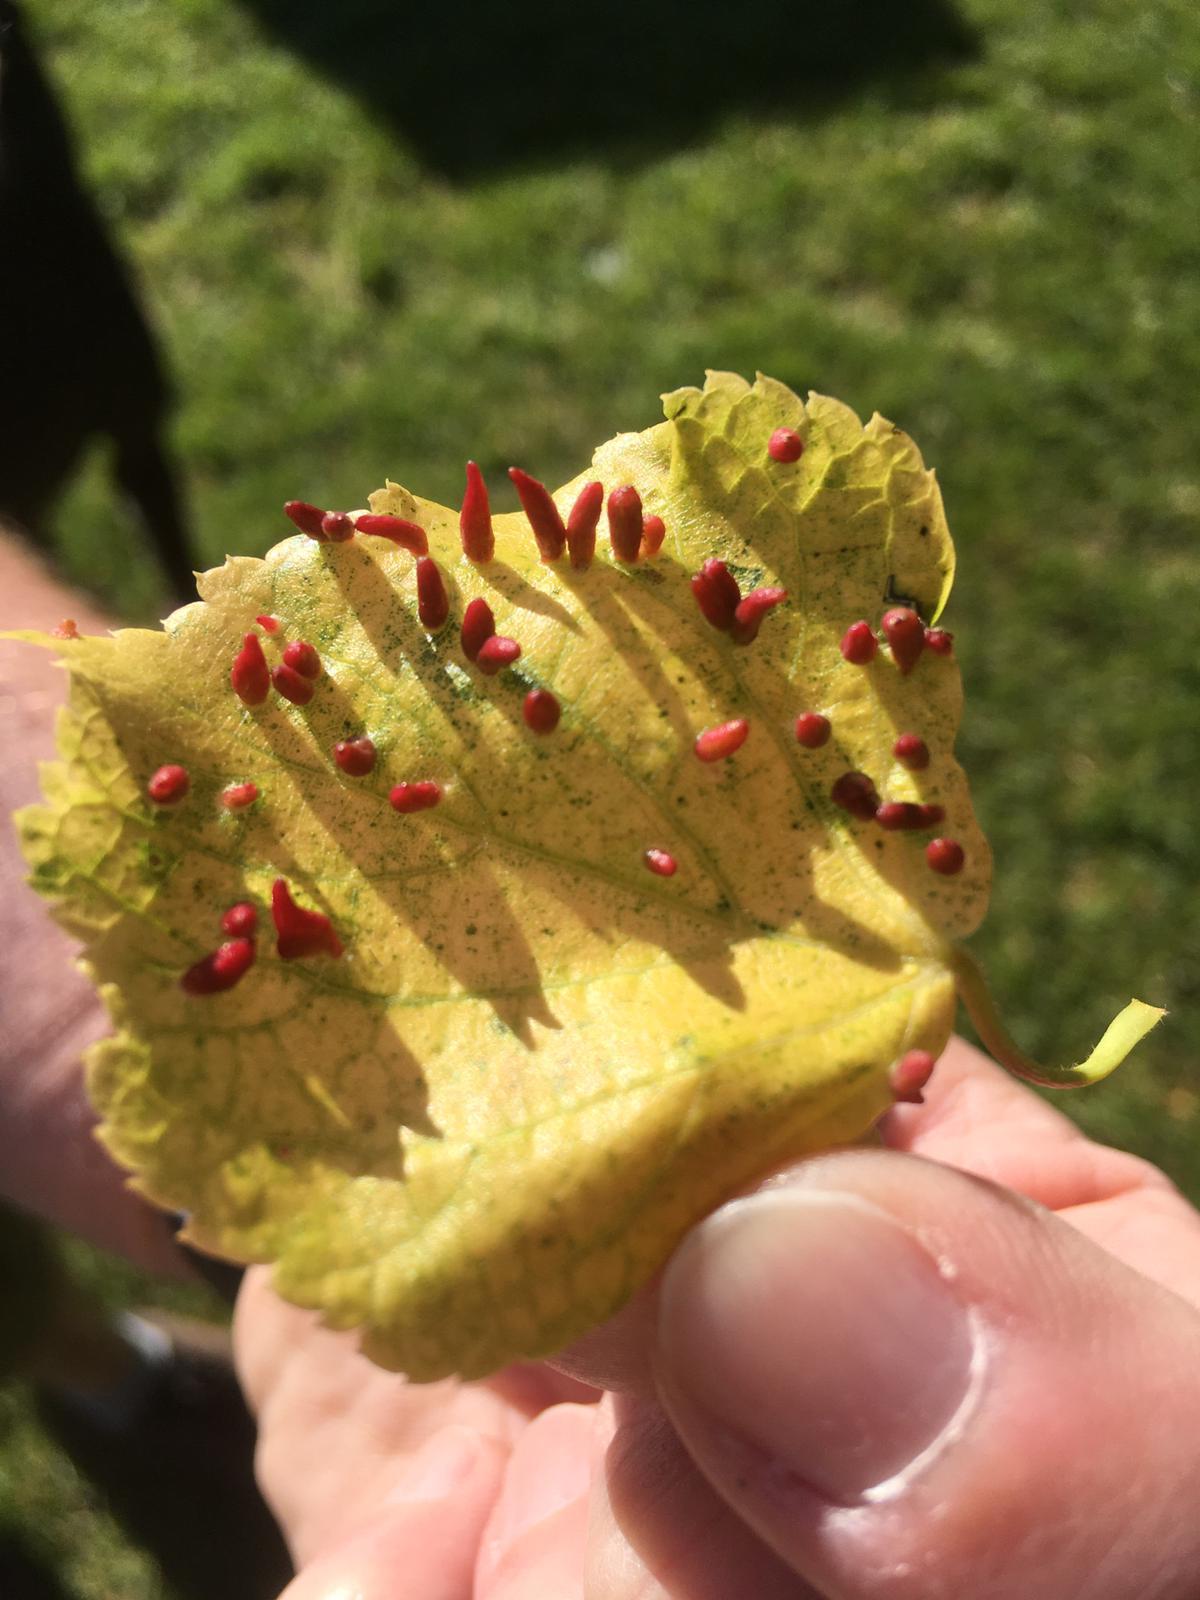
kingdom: Animalia
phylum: Arthropoda
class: Arachnida
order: Trombidiformes
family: Eriophyidae
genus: Eriophyes
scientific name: Eriophyes tiliae
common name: Red nail gall mite
